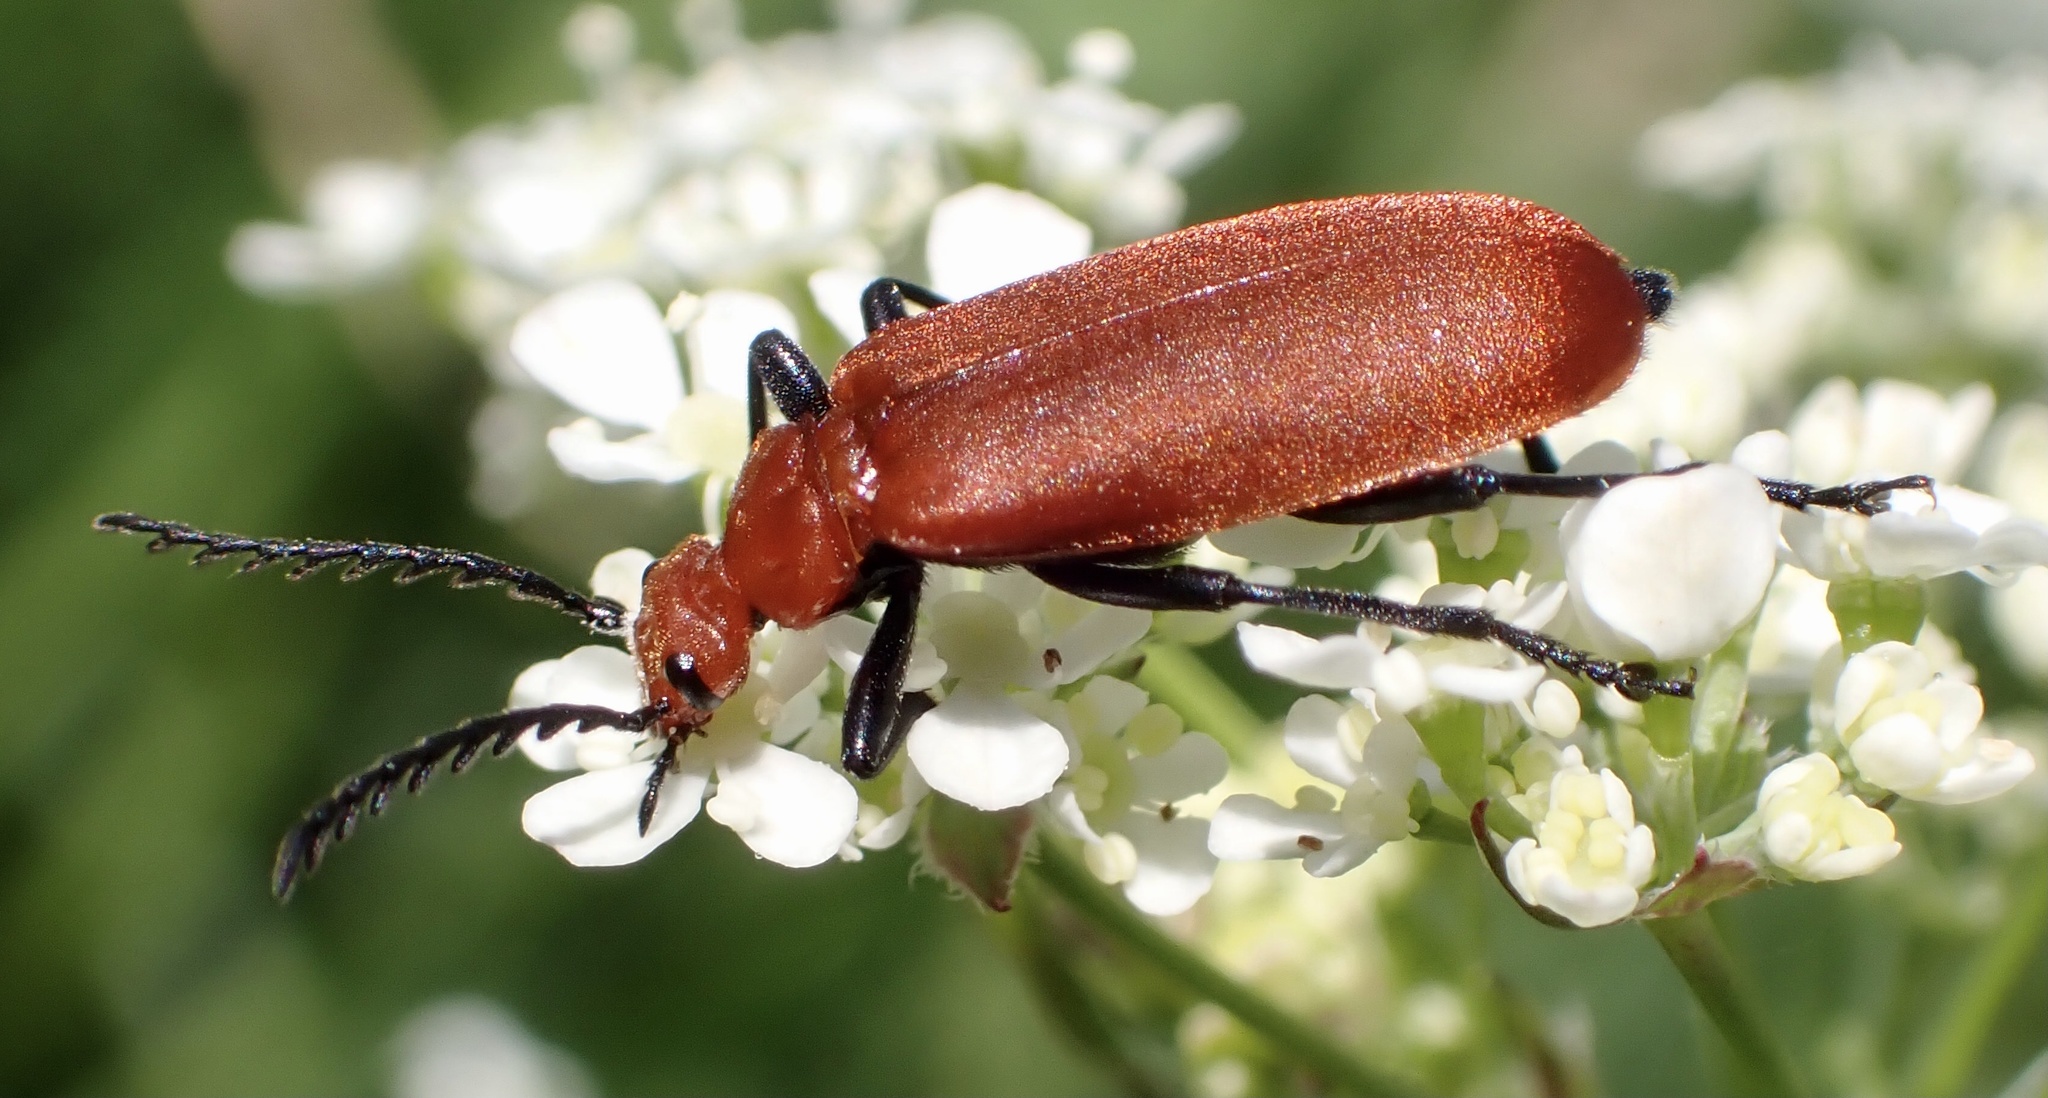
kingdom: Animalia
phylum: Arthropoda
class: Insecta
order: Coleoptera
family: Pyrochroidae
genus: Pyrochroa
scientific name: Pyrochroa serraticornis
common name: Red-headed cardinal beetle
